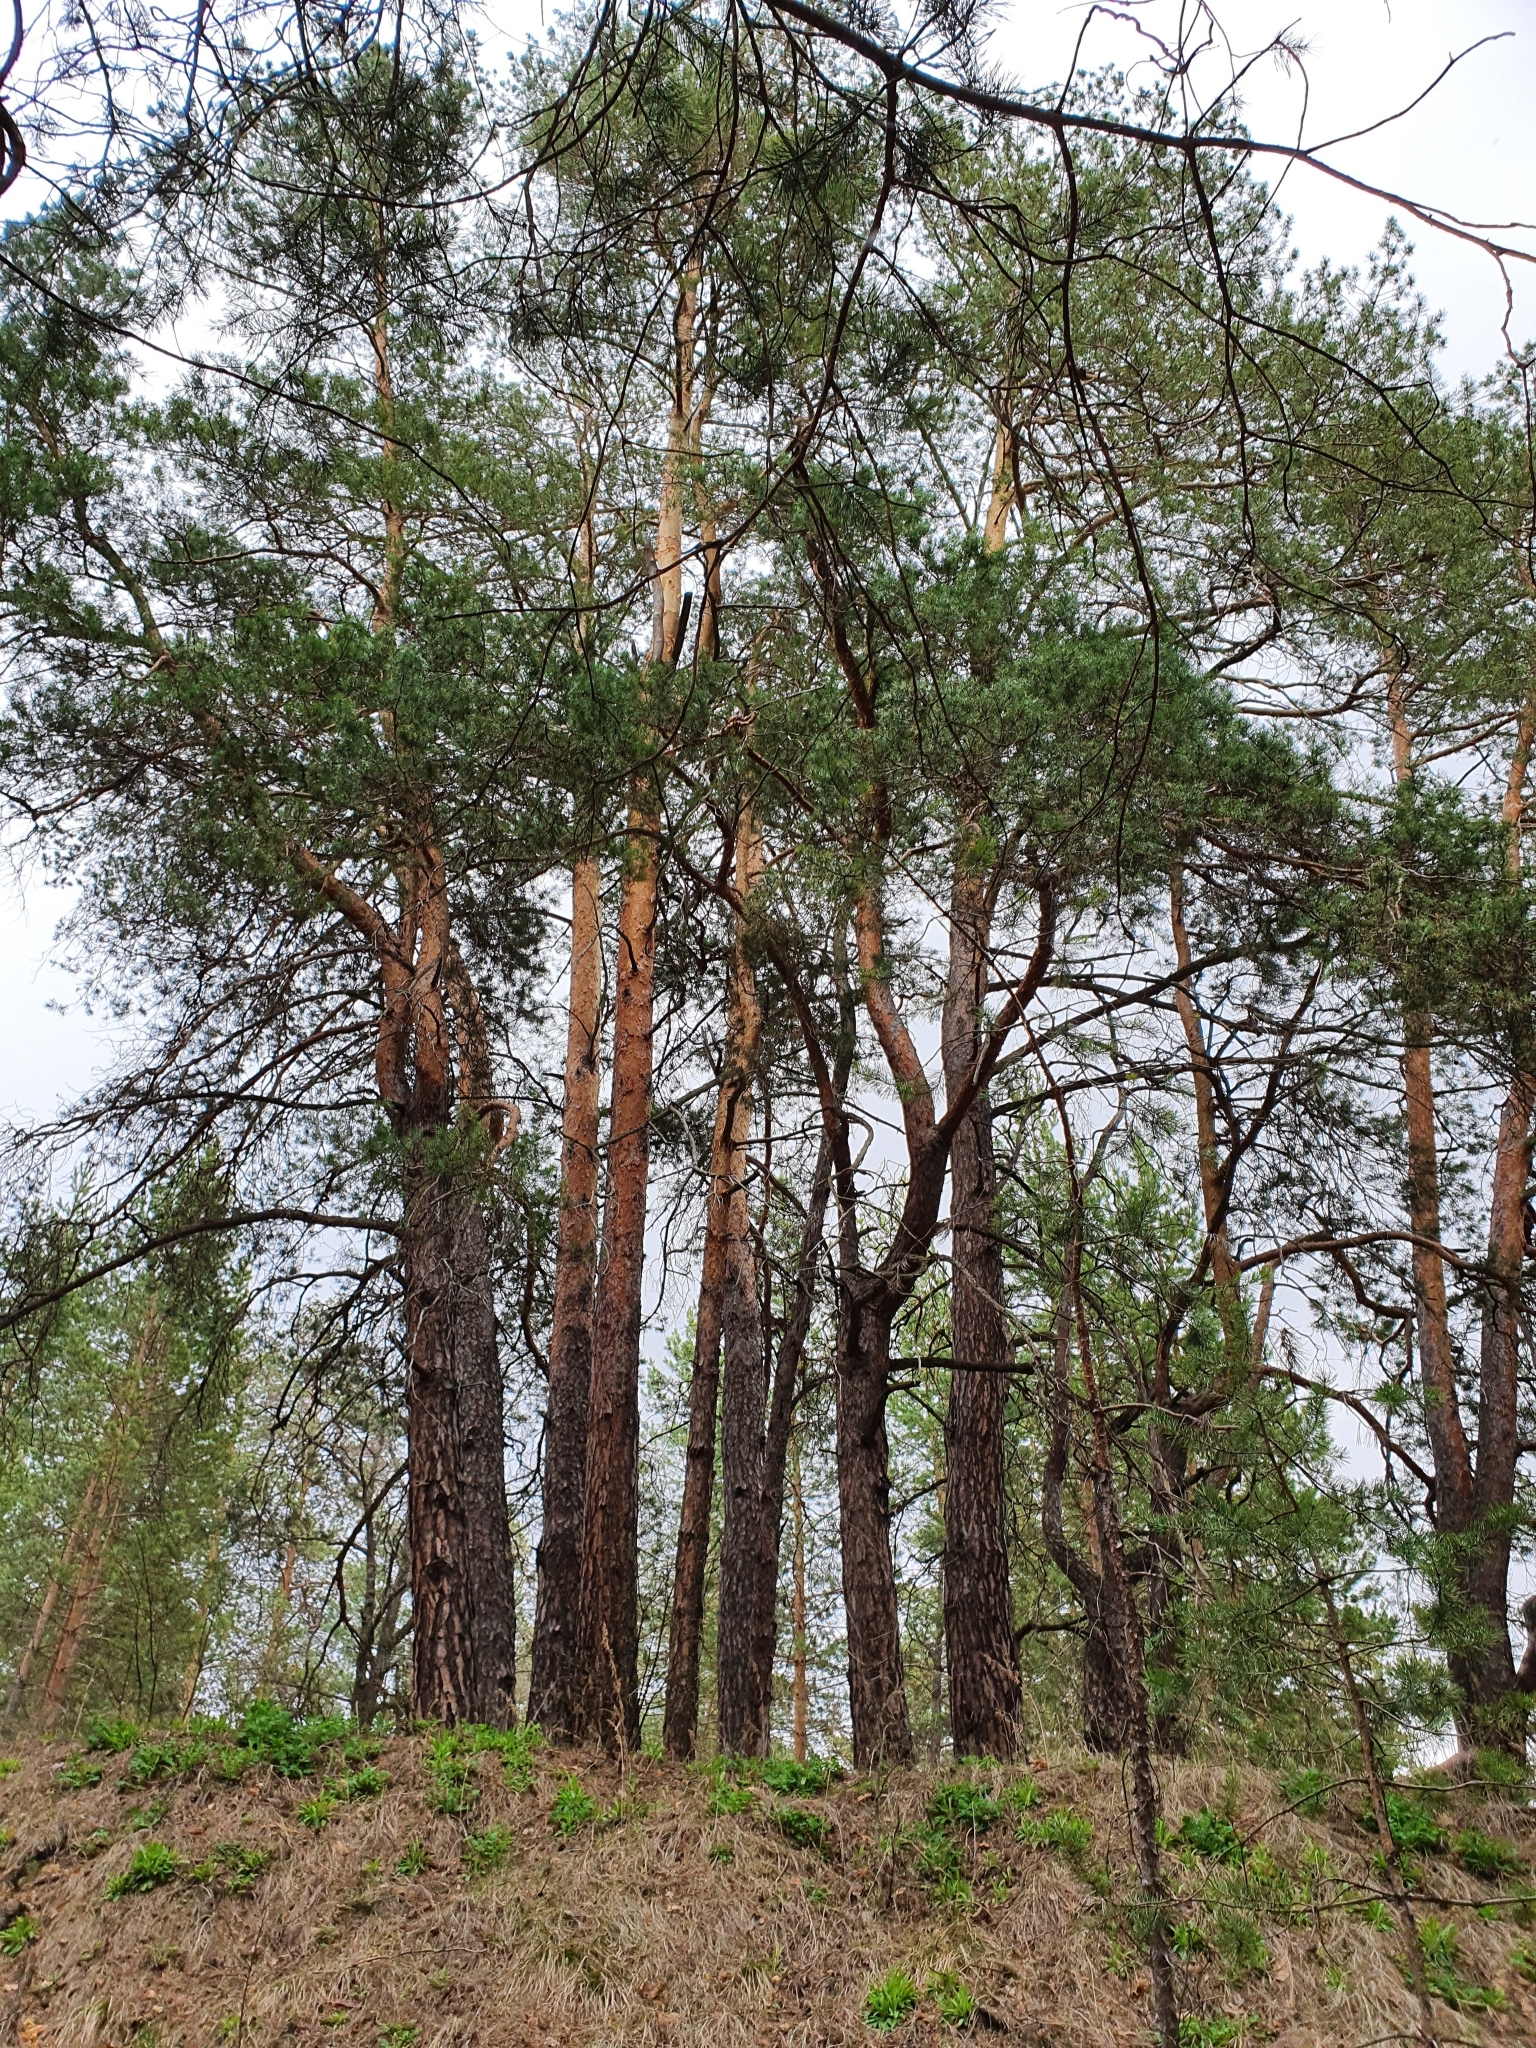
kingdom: Plantae
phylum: Tracheophyta
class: Pinopsida
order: Pinales
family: Pinaceae
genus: Pinus
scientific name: Pinus sylvestris
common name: Scots pine
